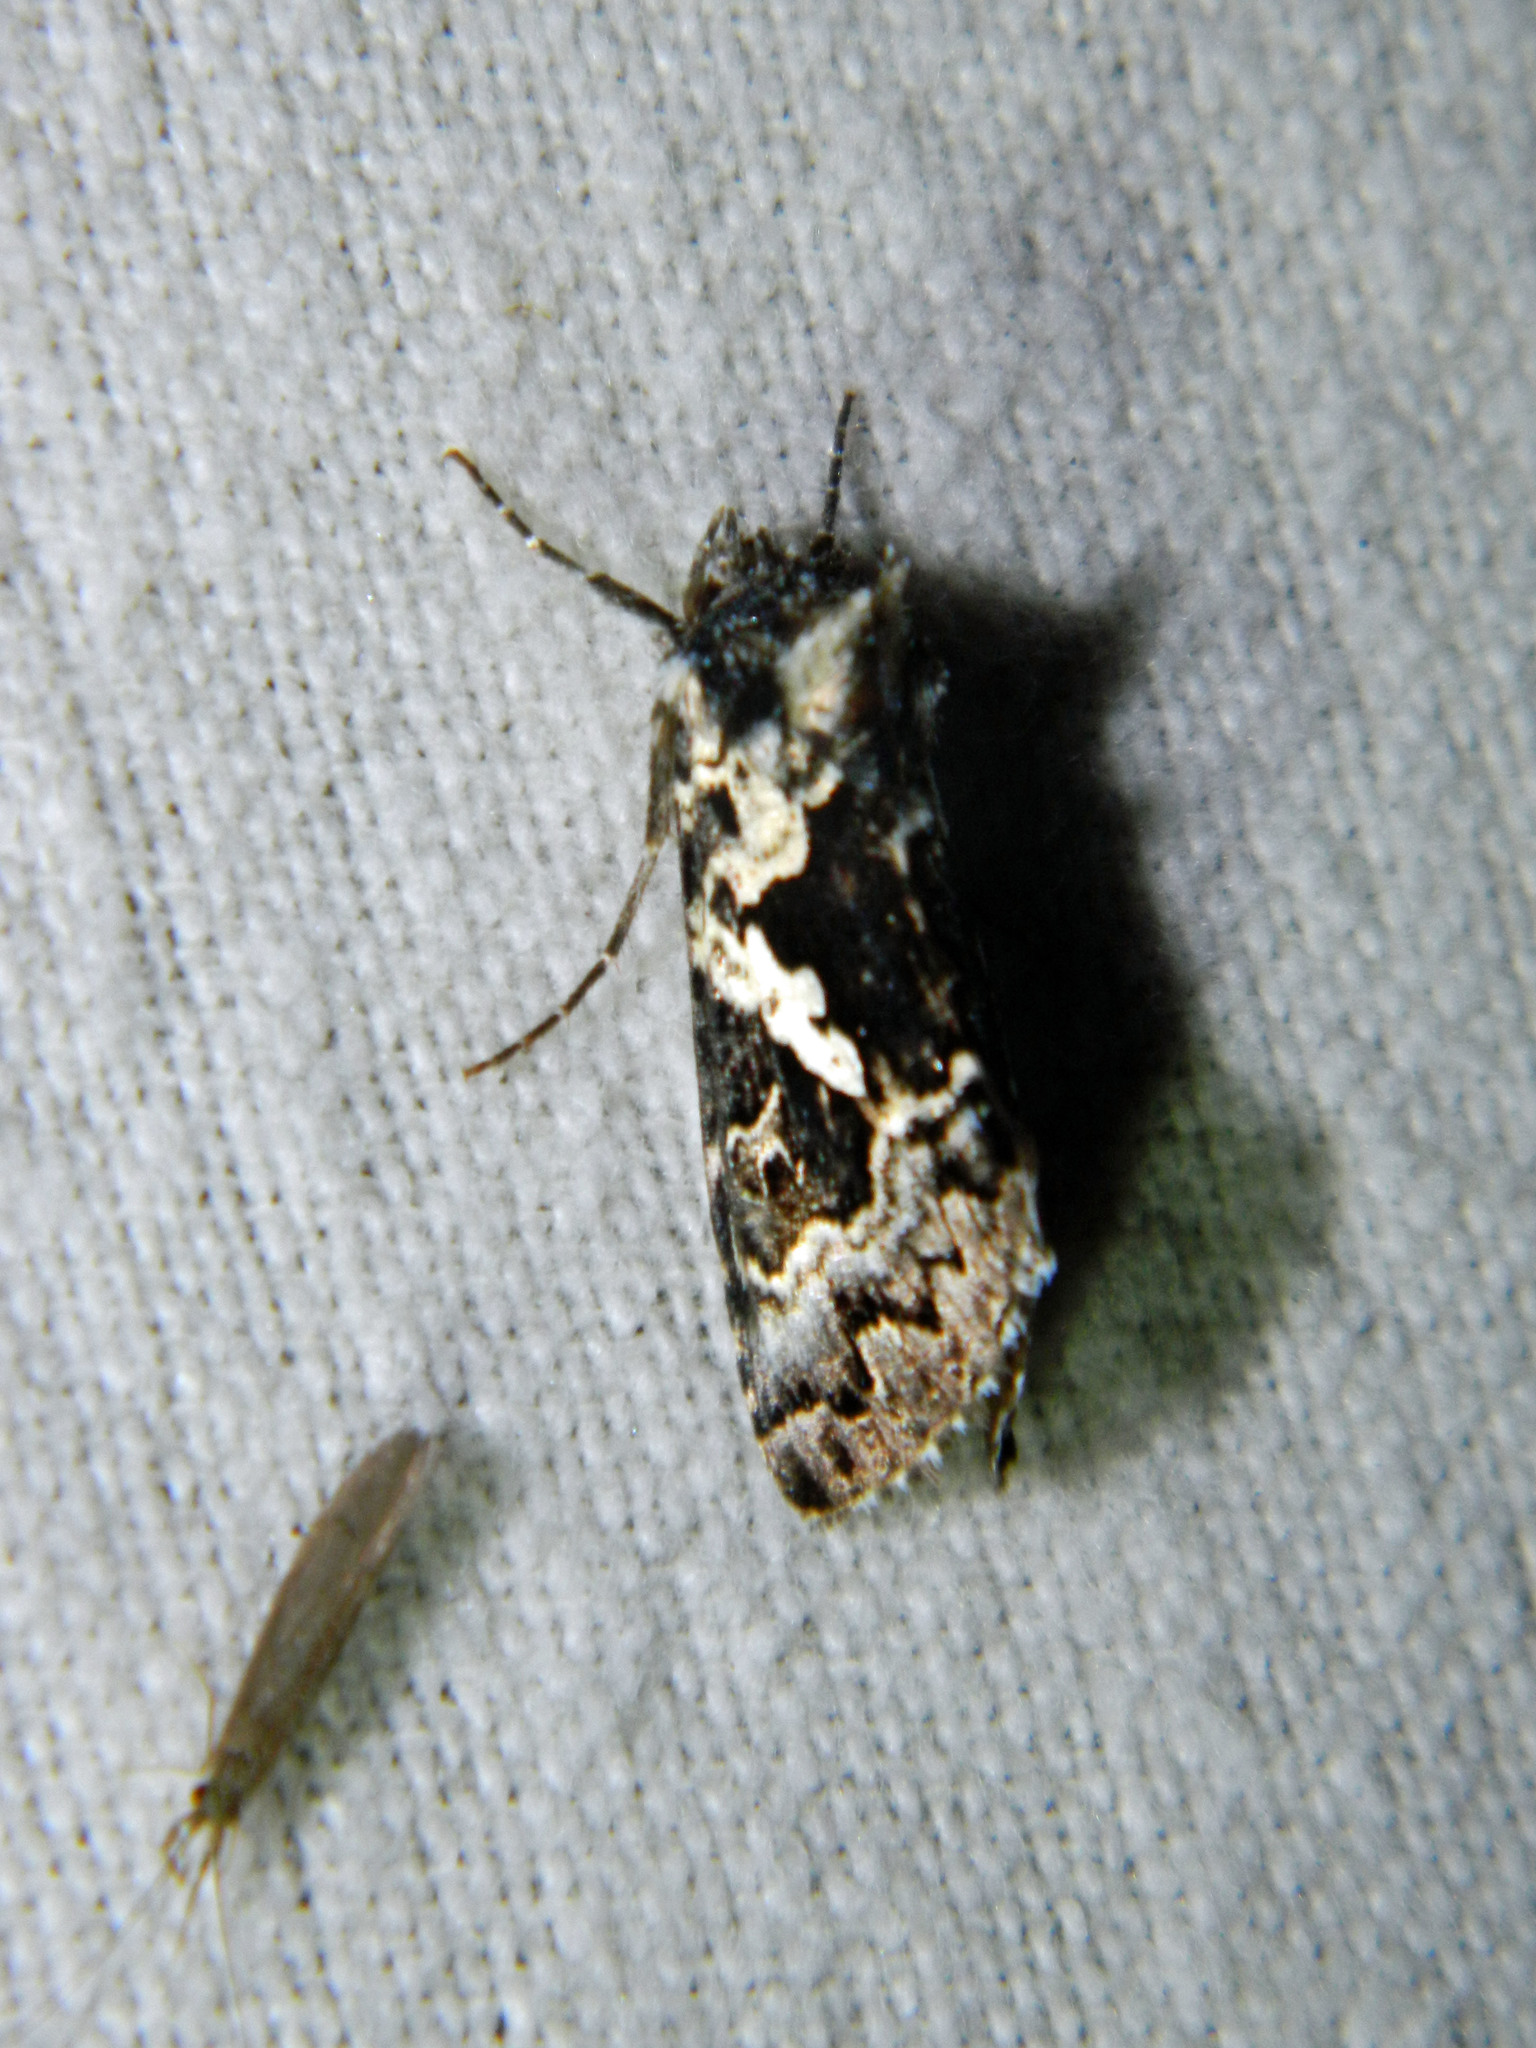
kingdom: Animalia
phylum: Arthropoda
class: Insecta
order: Lepidoptera
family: Noctuidae
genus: Syngrapha
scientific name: Syngrapha rectangula
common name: Angulated cutworm
